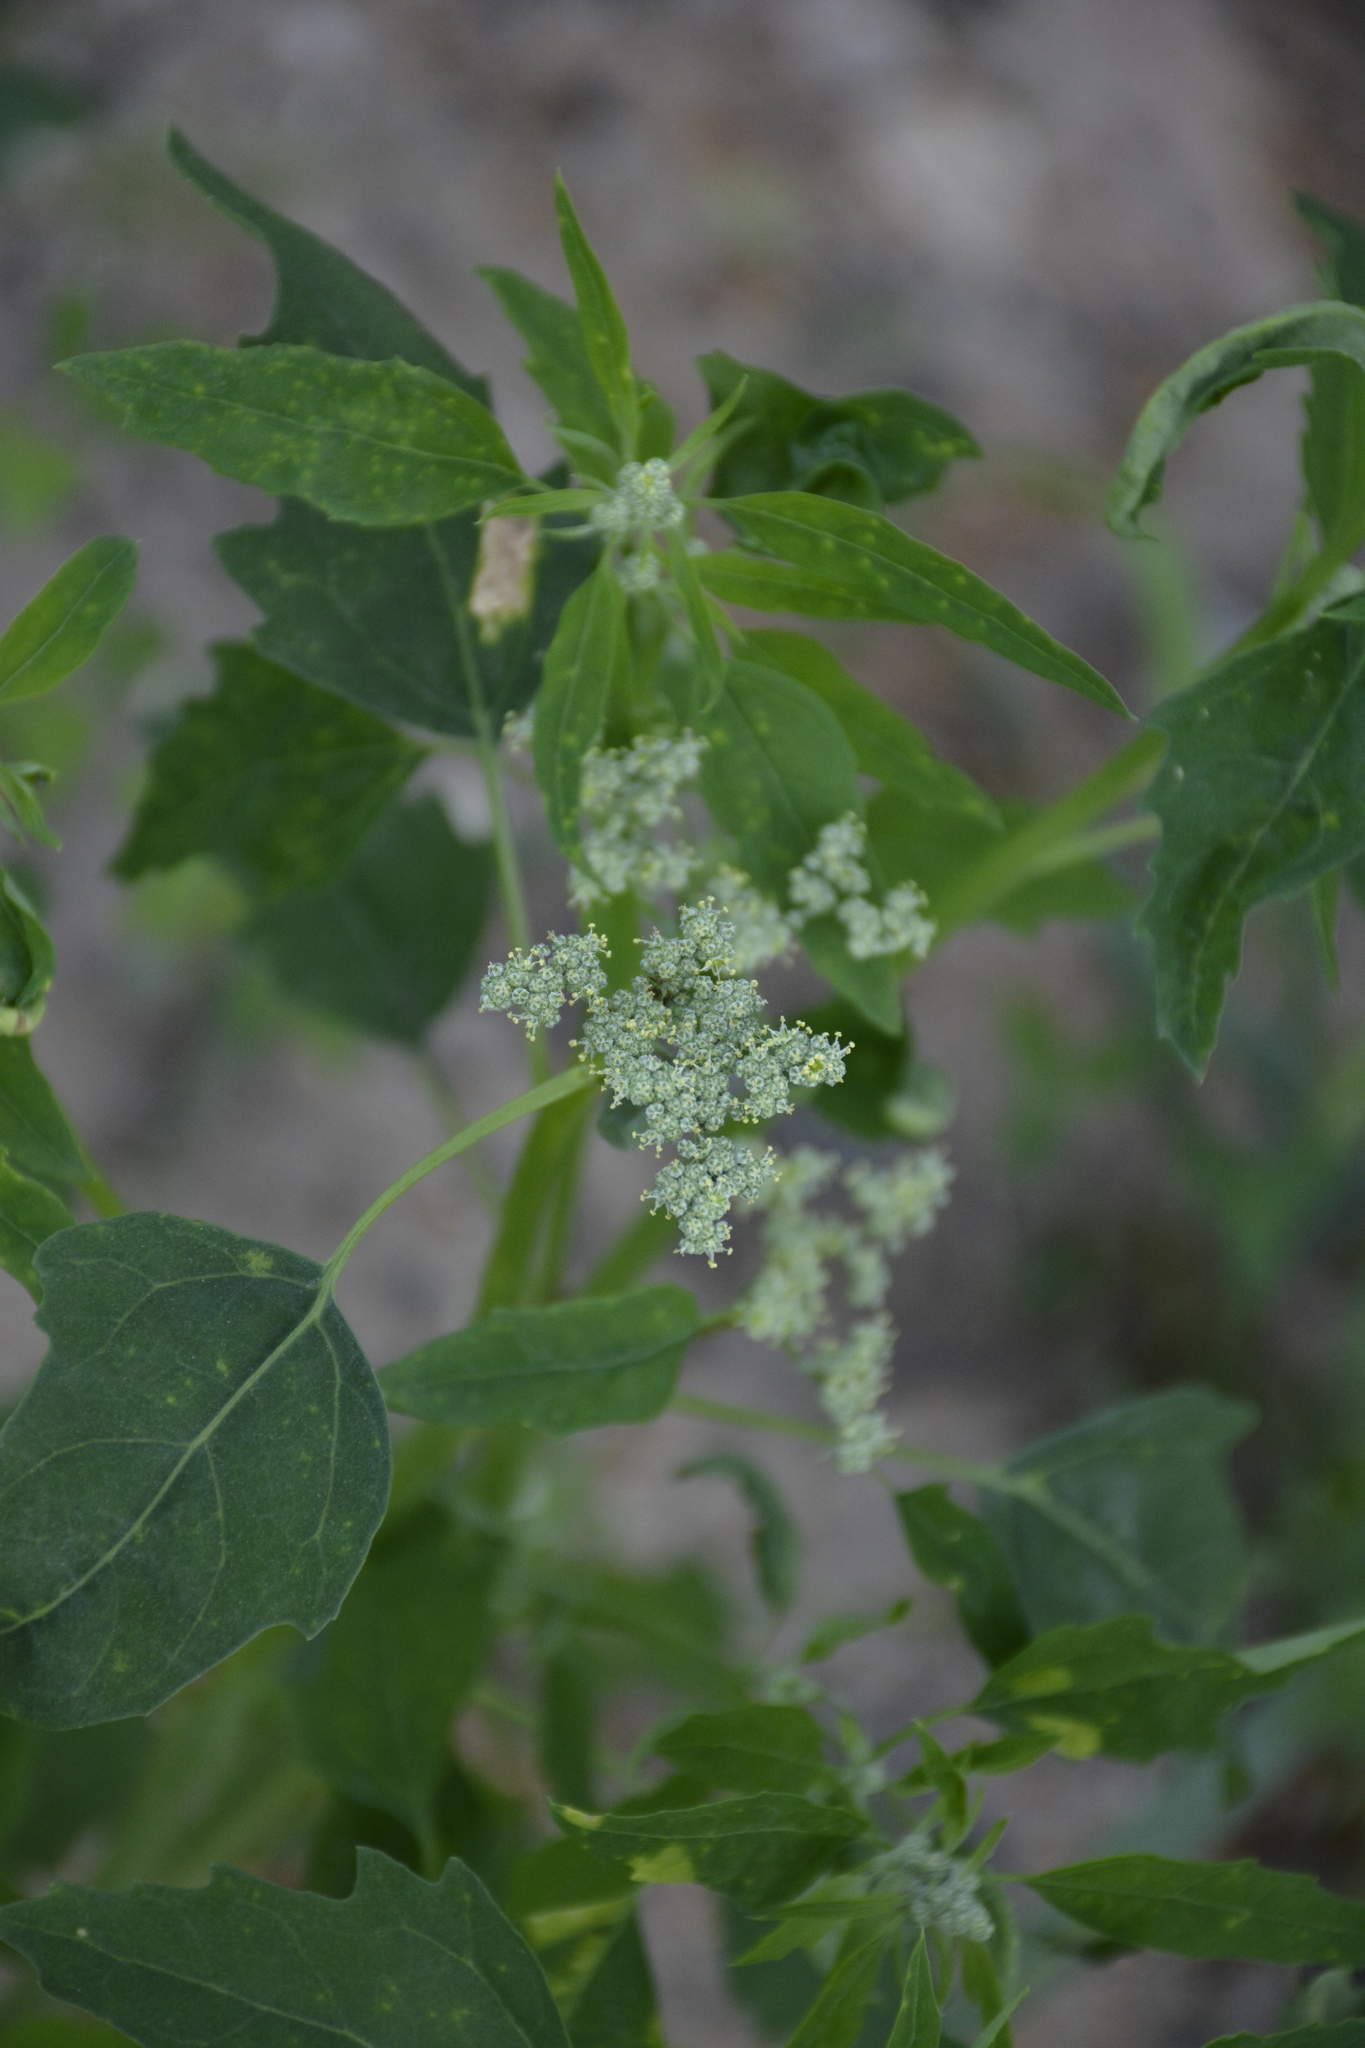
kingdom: Plantae
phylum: Tracheophyta
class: Magnoliopsida
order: Caryophyllales
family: Amaranthaceae
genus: Chenopodium
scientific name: Chenopodium album
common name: Fat-hen
